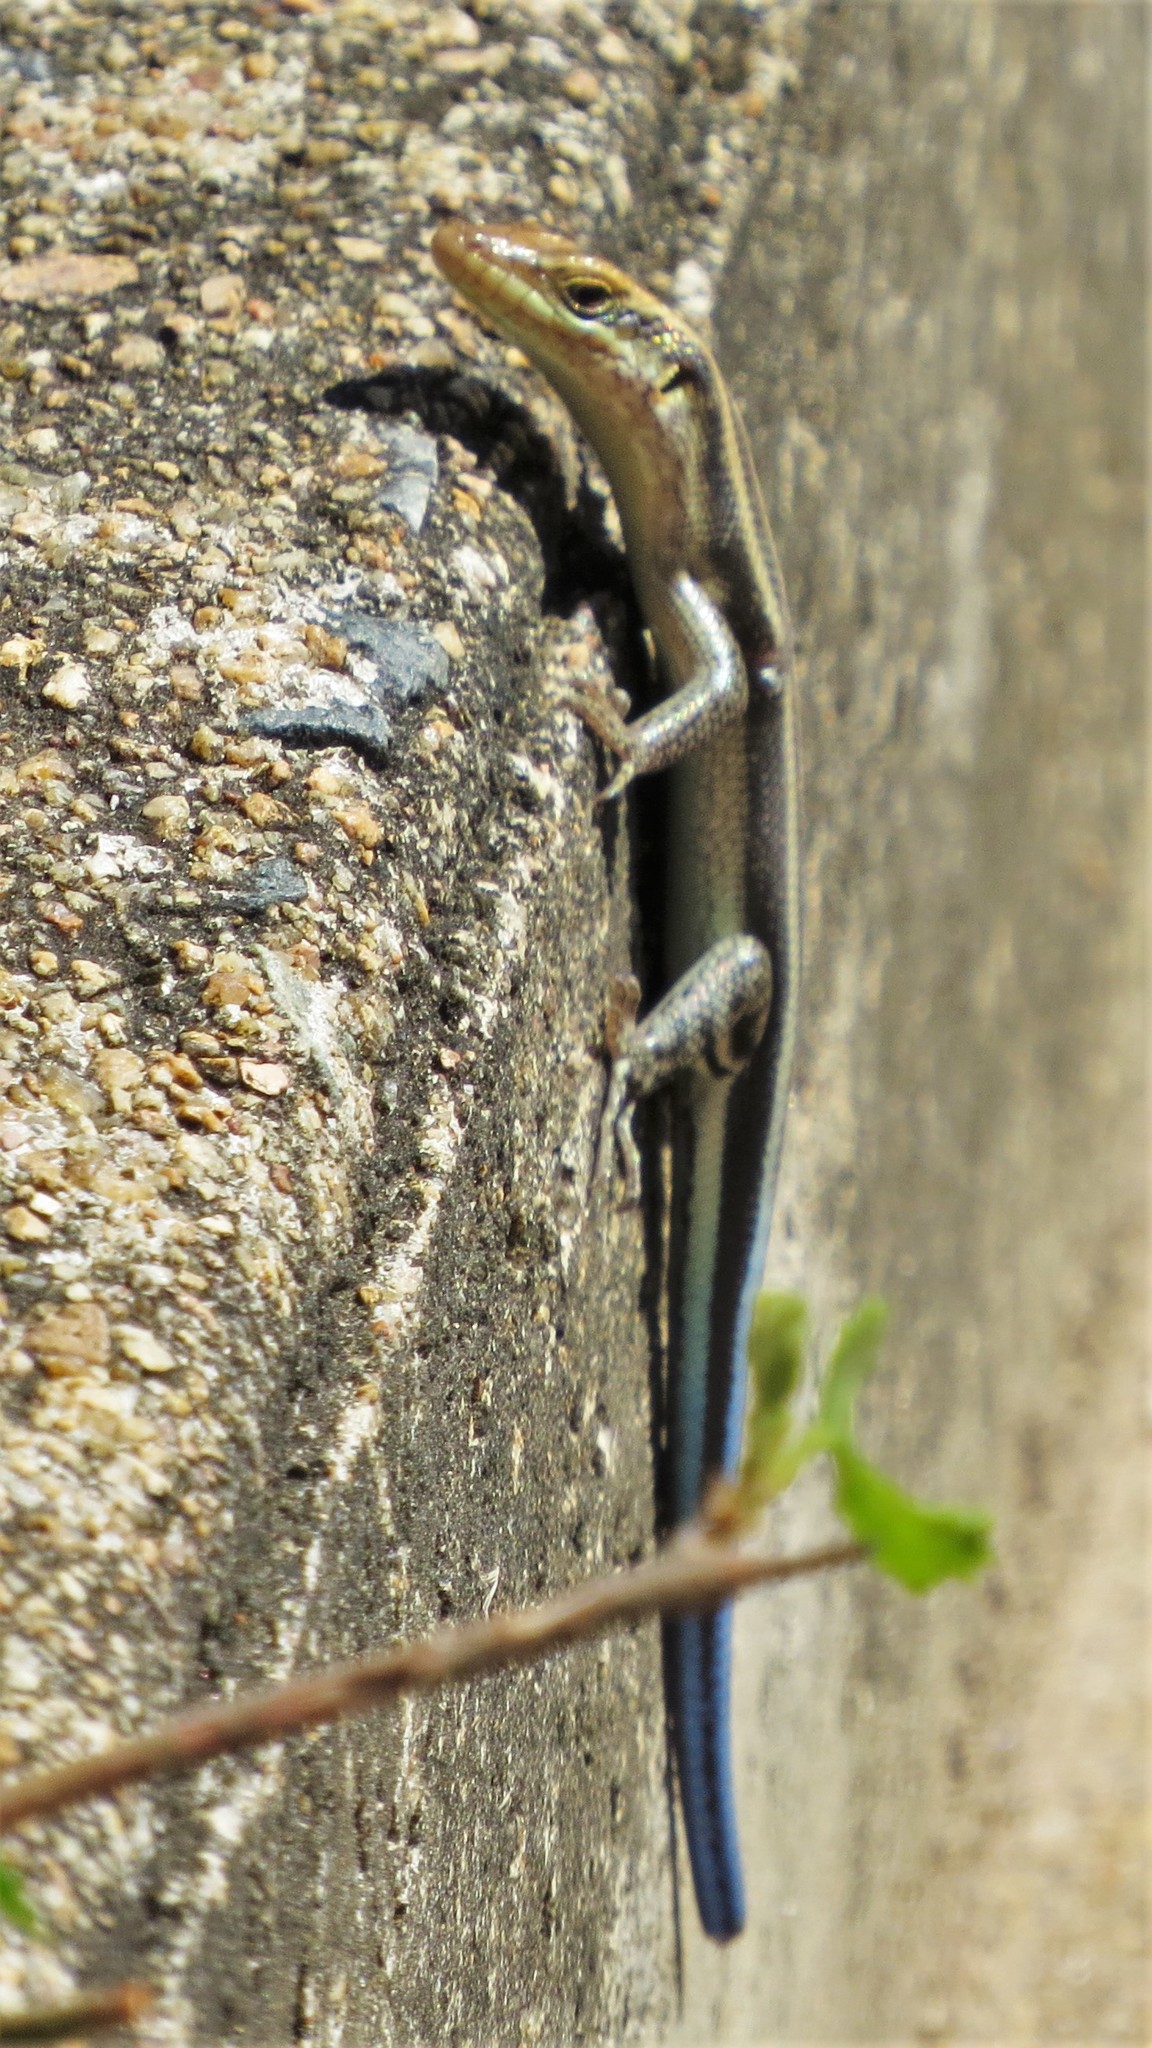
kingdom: Animalia
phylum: Chordata
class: Squamata
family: Scincidae
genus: Trachylepis
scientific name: Trachylepis margaritifera
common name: Rainbow skink
